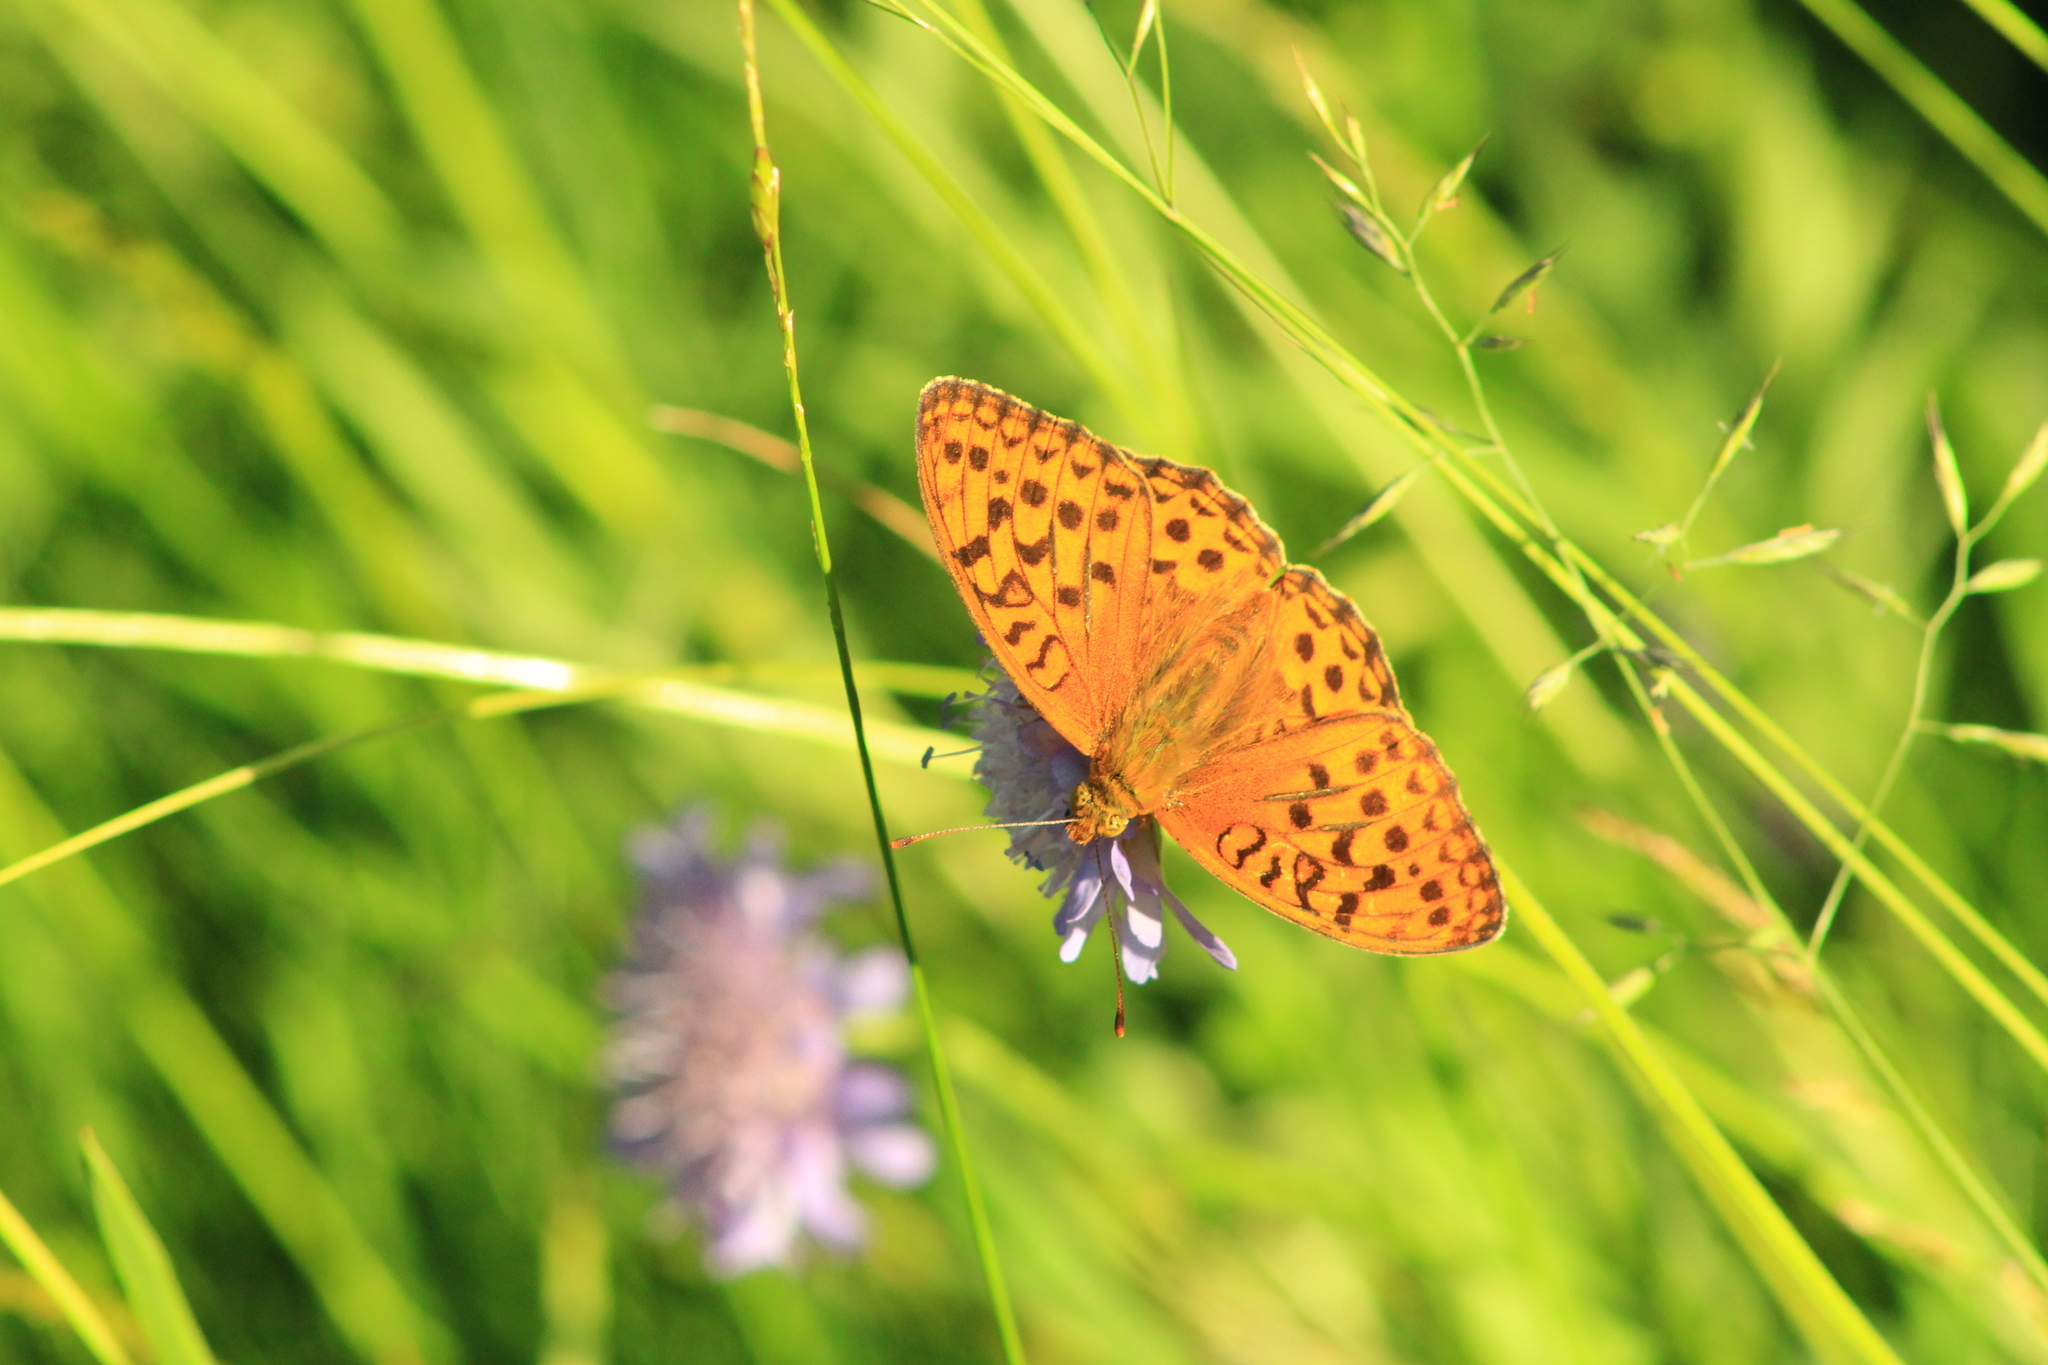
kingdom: Animalia
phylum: Arthropoda
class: Insecta
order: Lepidoptera
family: Nymphalidae
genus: Fabriciana
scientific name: Fabriciana adippe
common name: High brown fritillary
